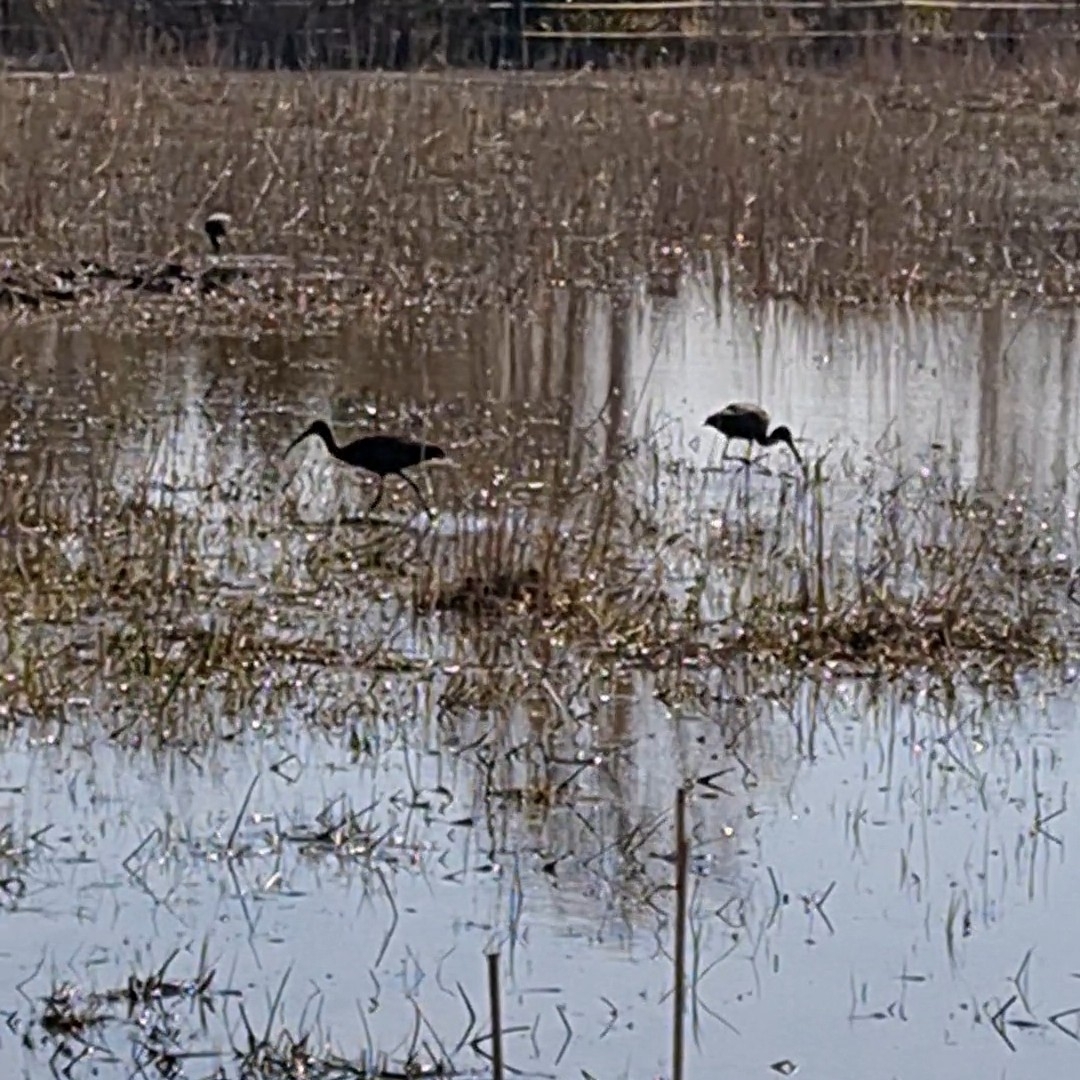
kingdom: Animalia
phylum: Chordata
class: Aves
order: Pelecaniformes
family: Threskiornithidae
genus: Plegadis
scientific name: Plegadis falcinellus
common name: Glossy ibis
